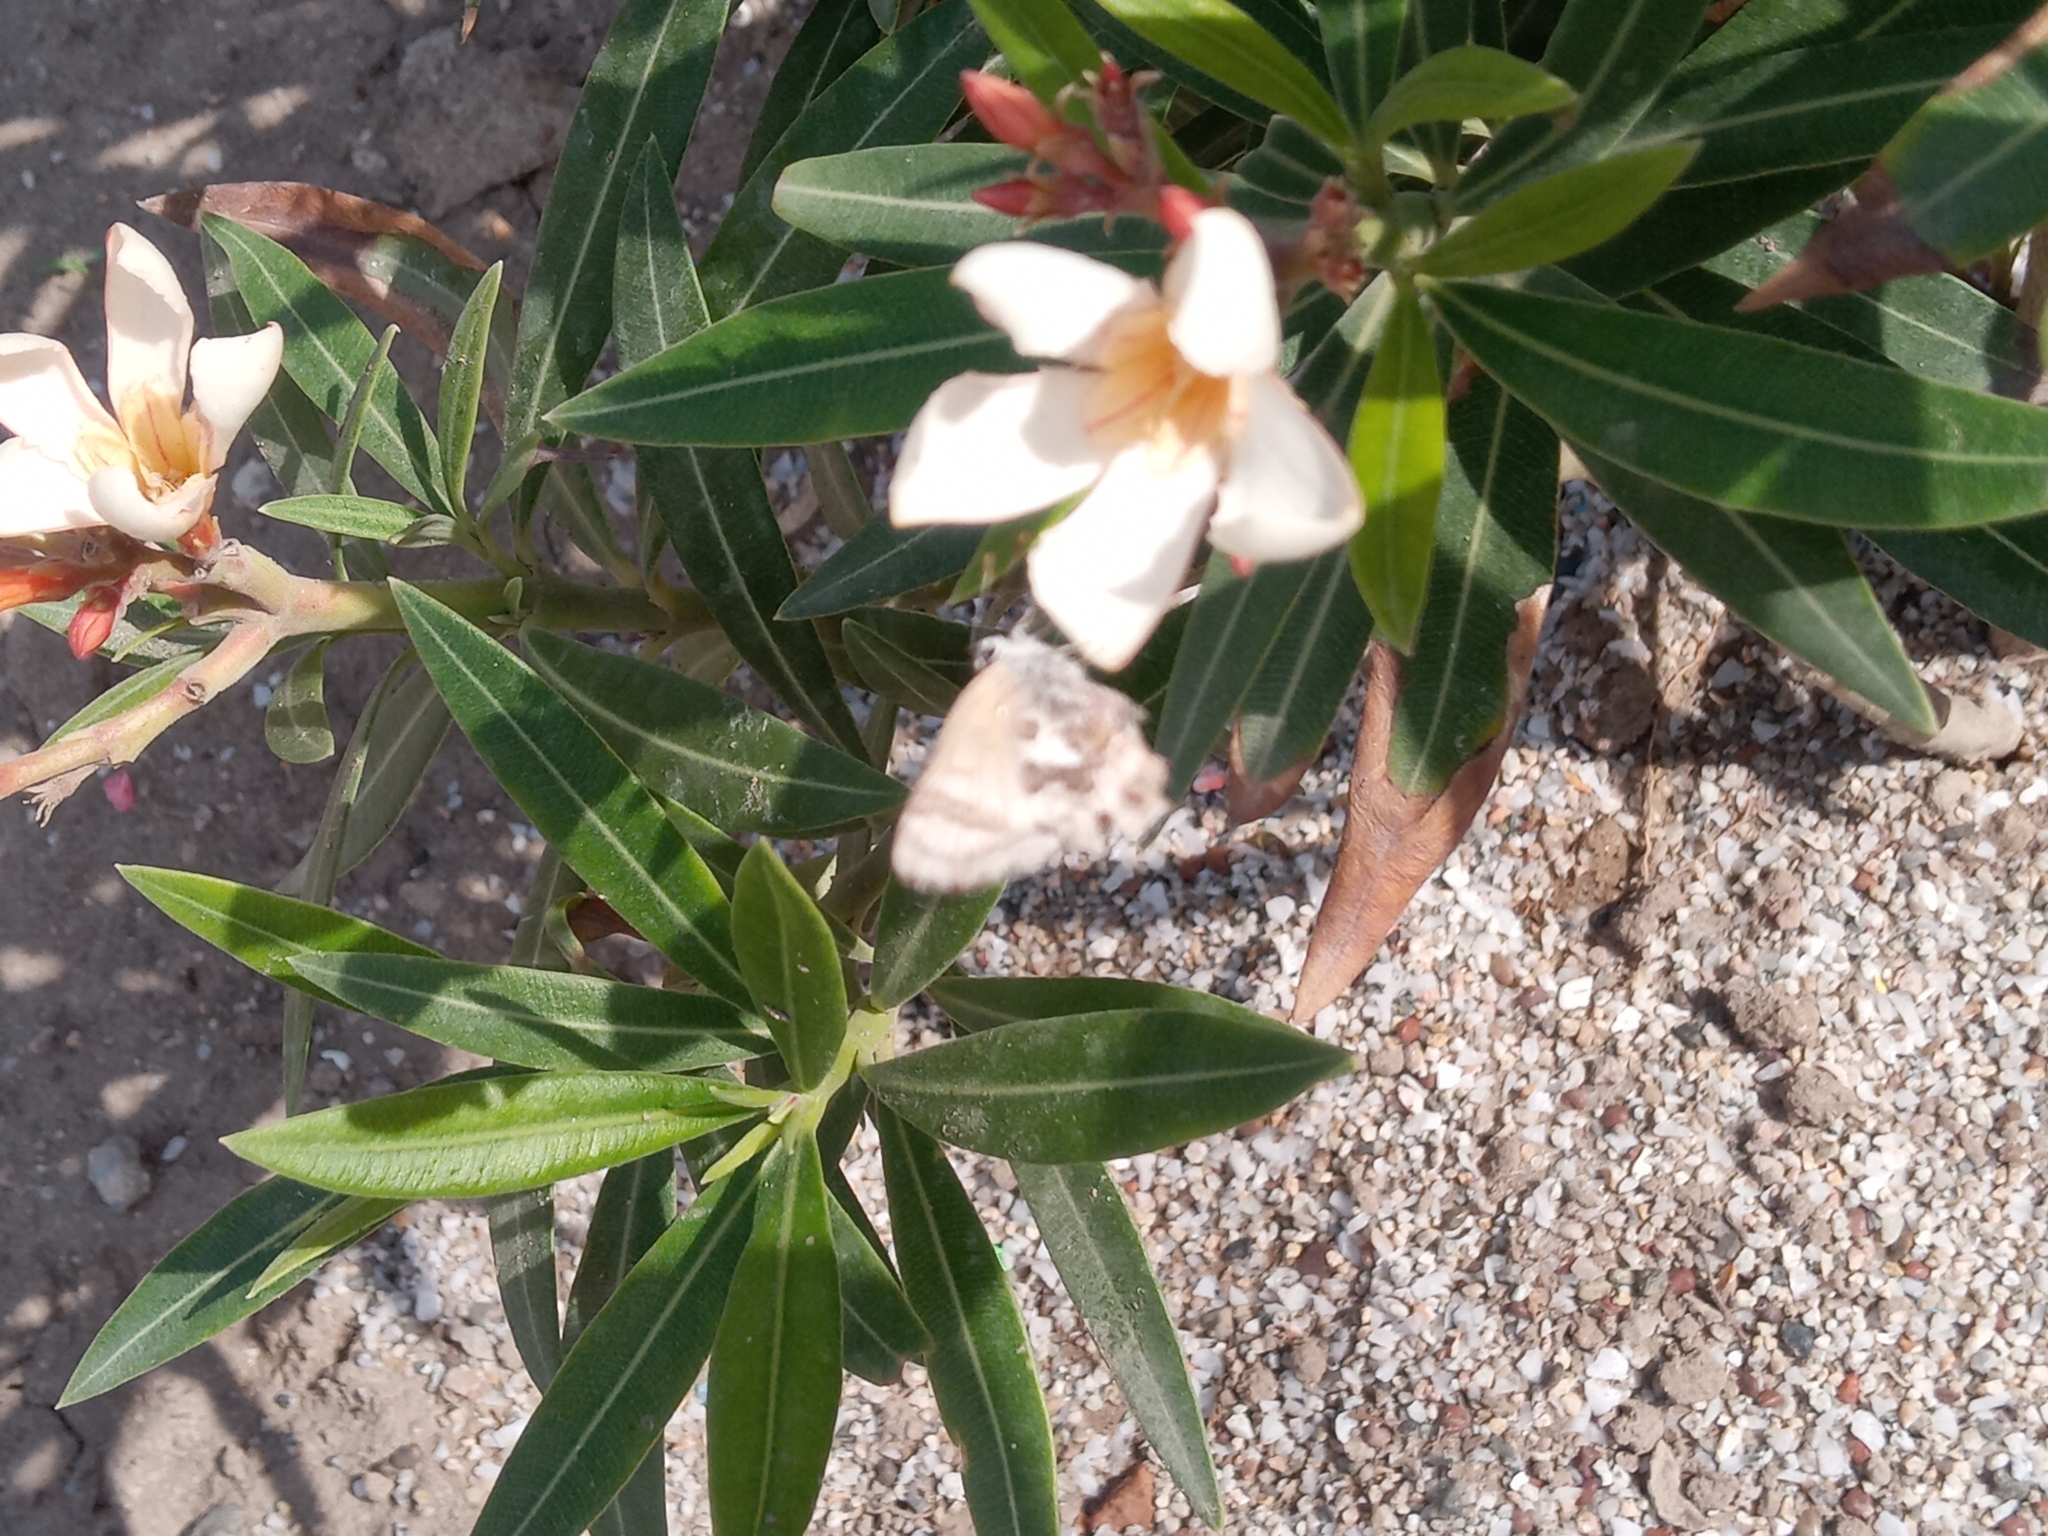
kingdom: Animalia
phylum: Arthropoda
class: Insecta
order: Lepidoptera
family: Lycaenidae
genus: Strymon
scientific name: Strymon
